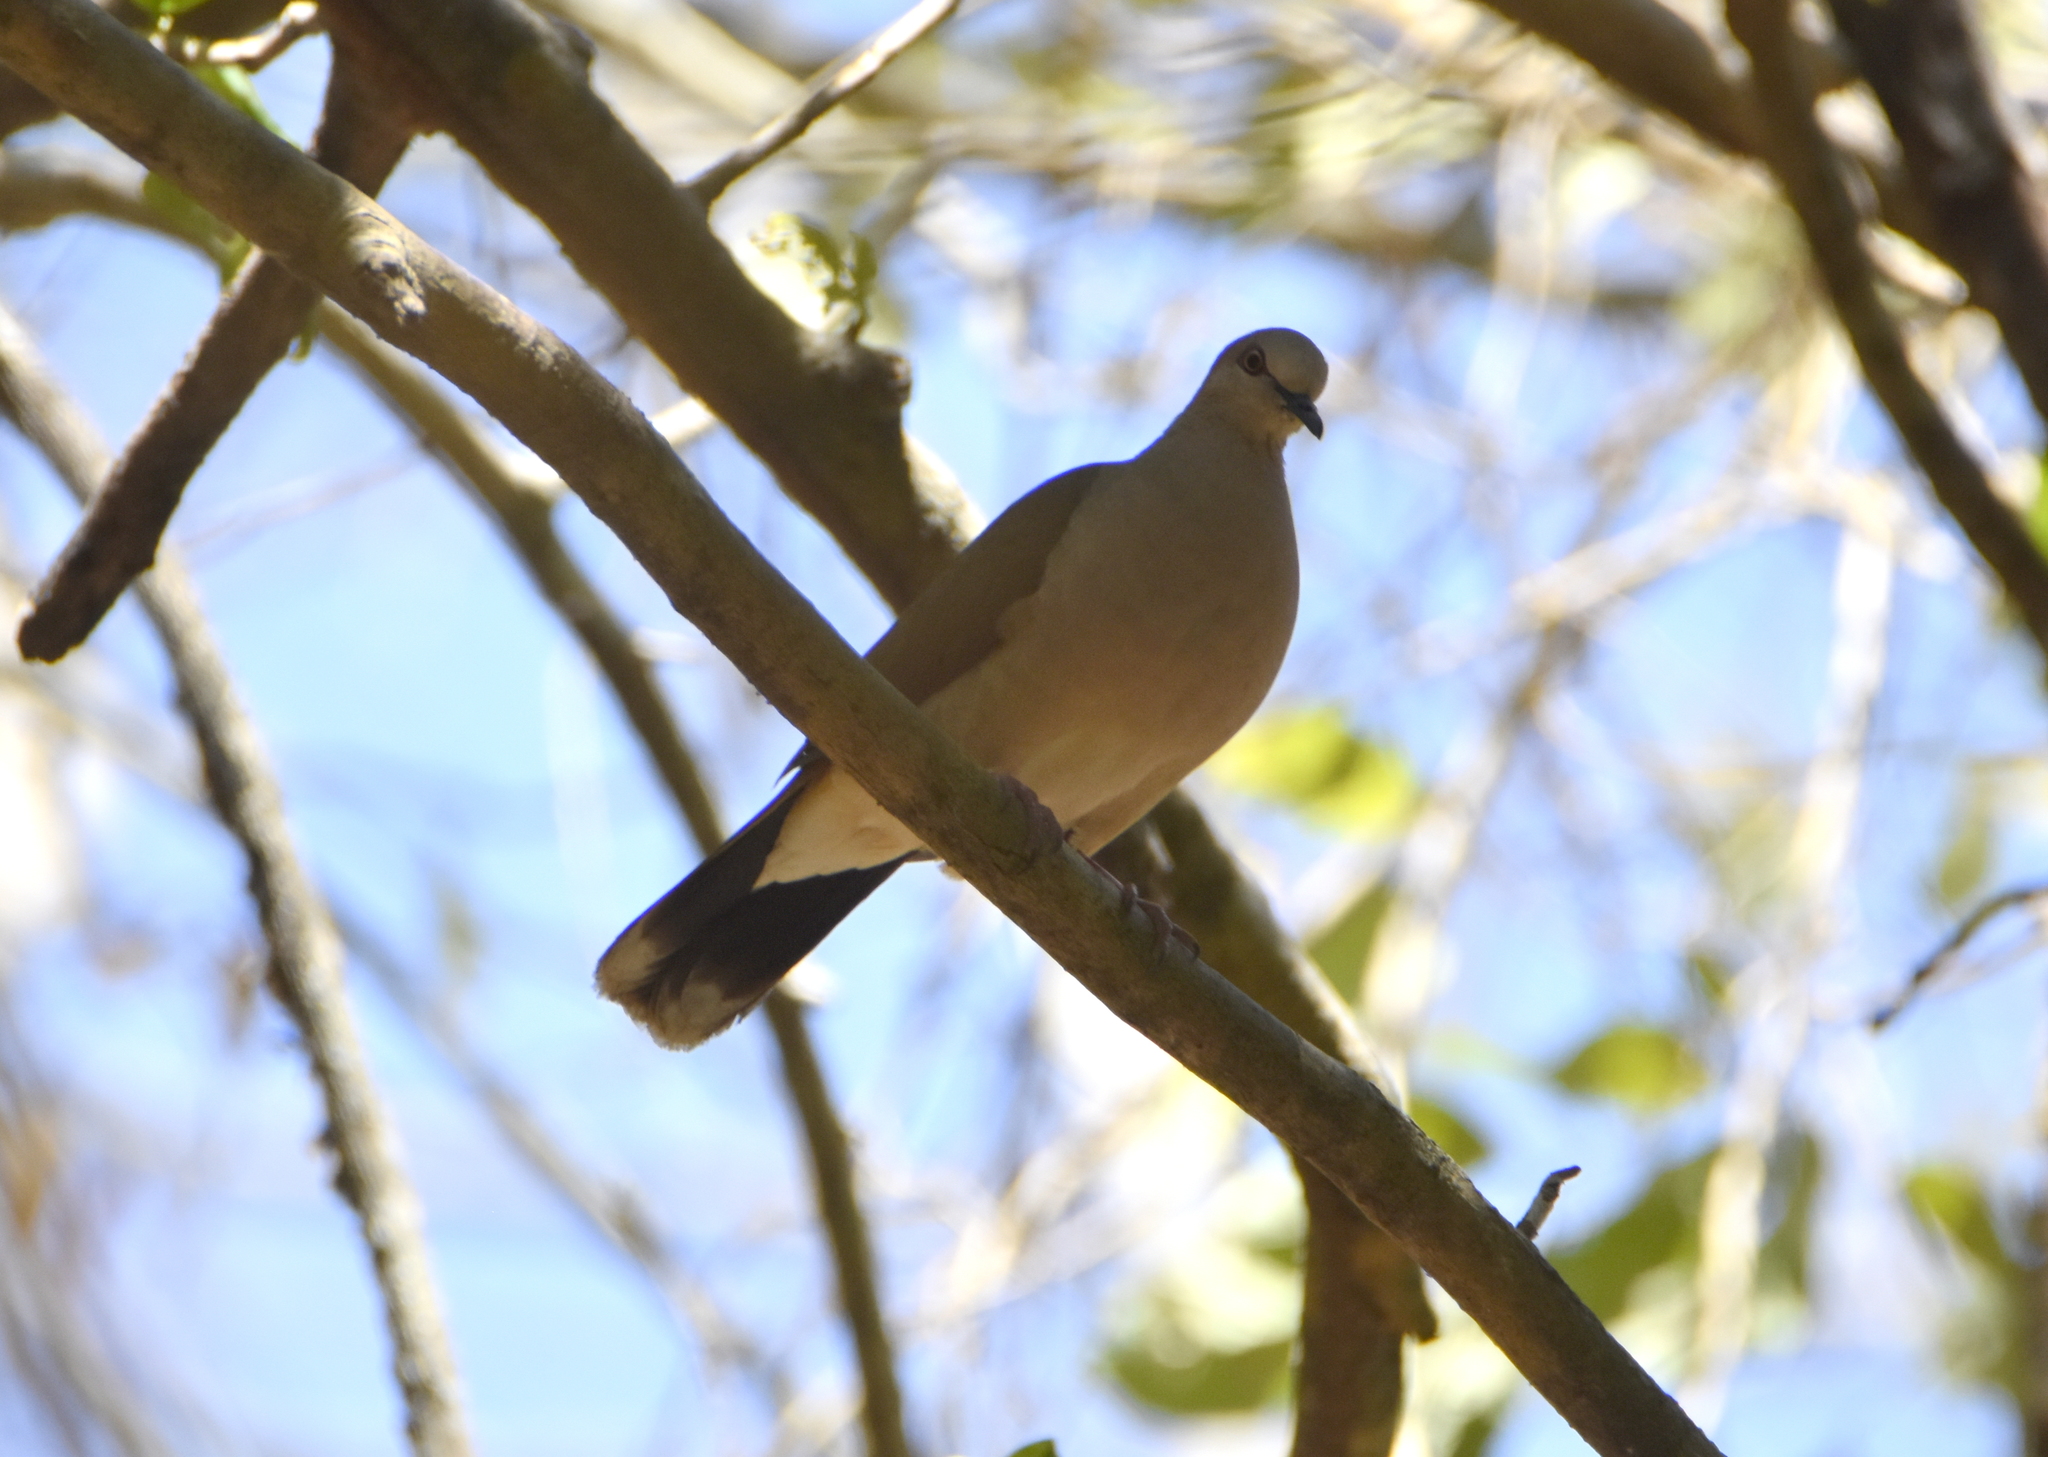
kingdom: Animalia
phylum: Chordata
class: Aves
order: Columbiformes
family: Columbidae
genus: Leptotila
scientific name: Leptotila verreauxi
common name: White-tipped dove
